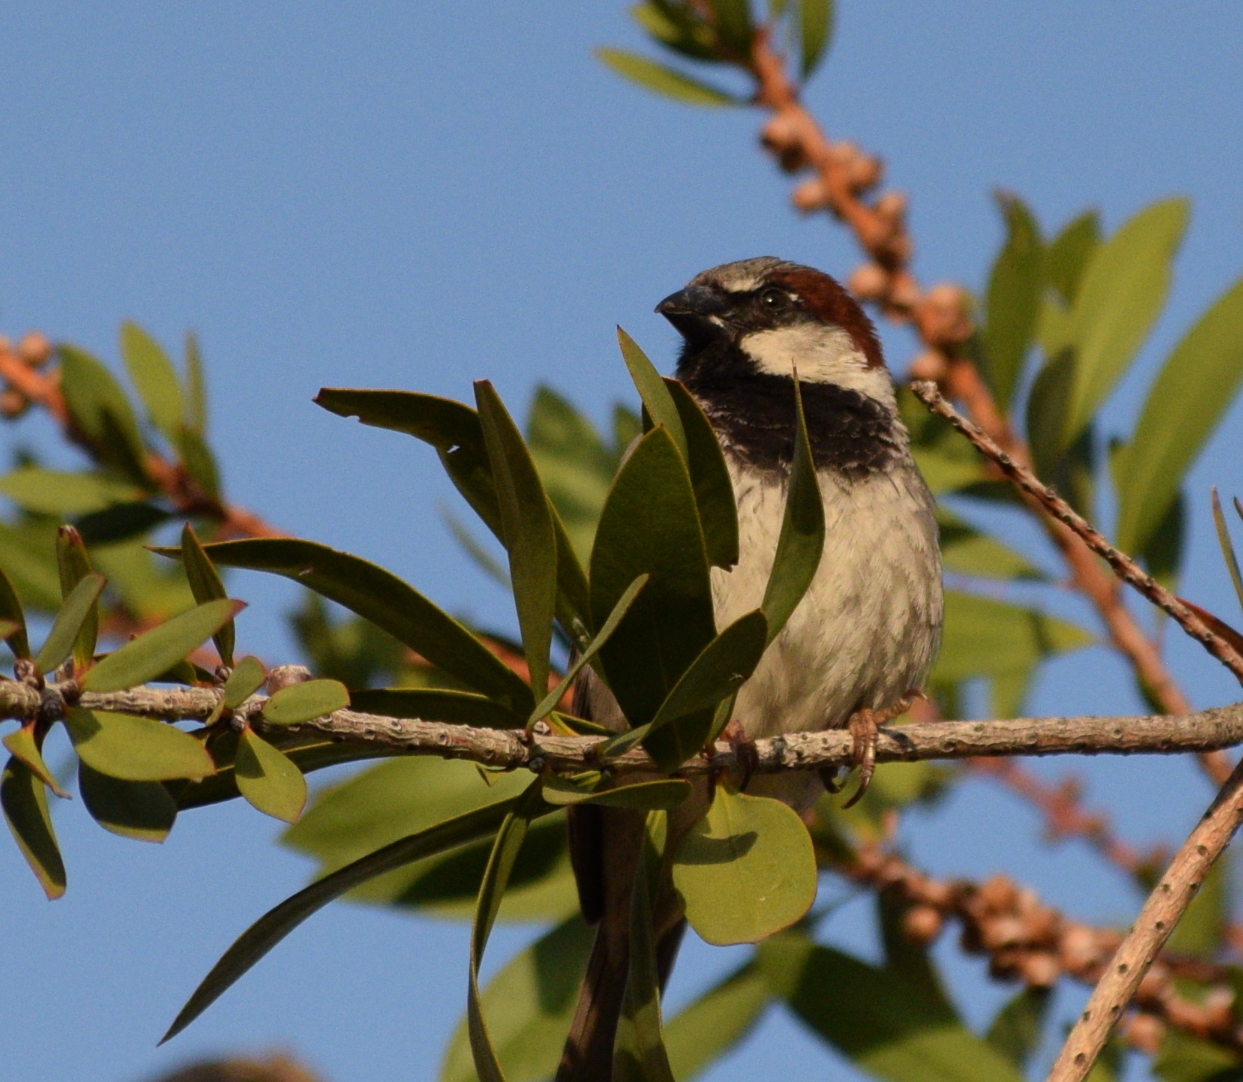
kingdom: Animalia
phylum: Chordata
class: Aves
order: Passeriformes
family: Passeridae
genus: Passer
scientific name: Passer domesticus
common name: House sparrow
